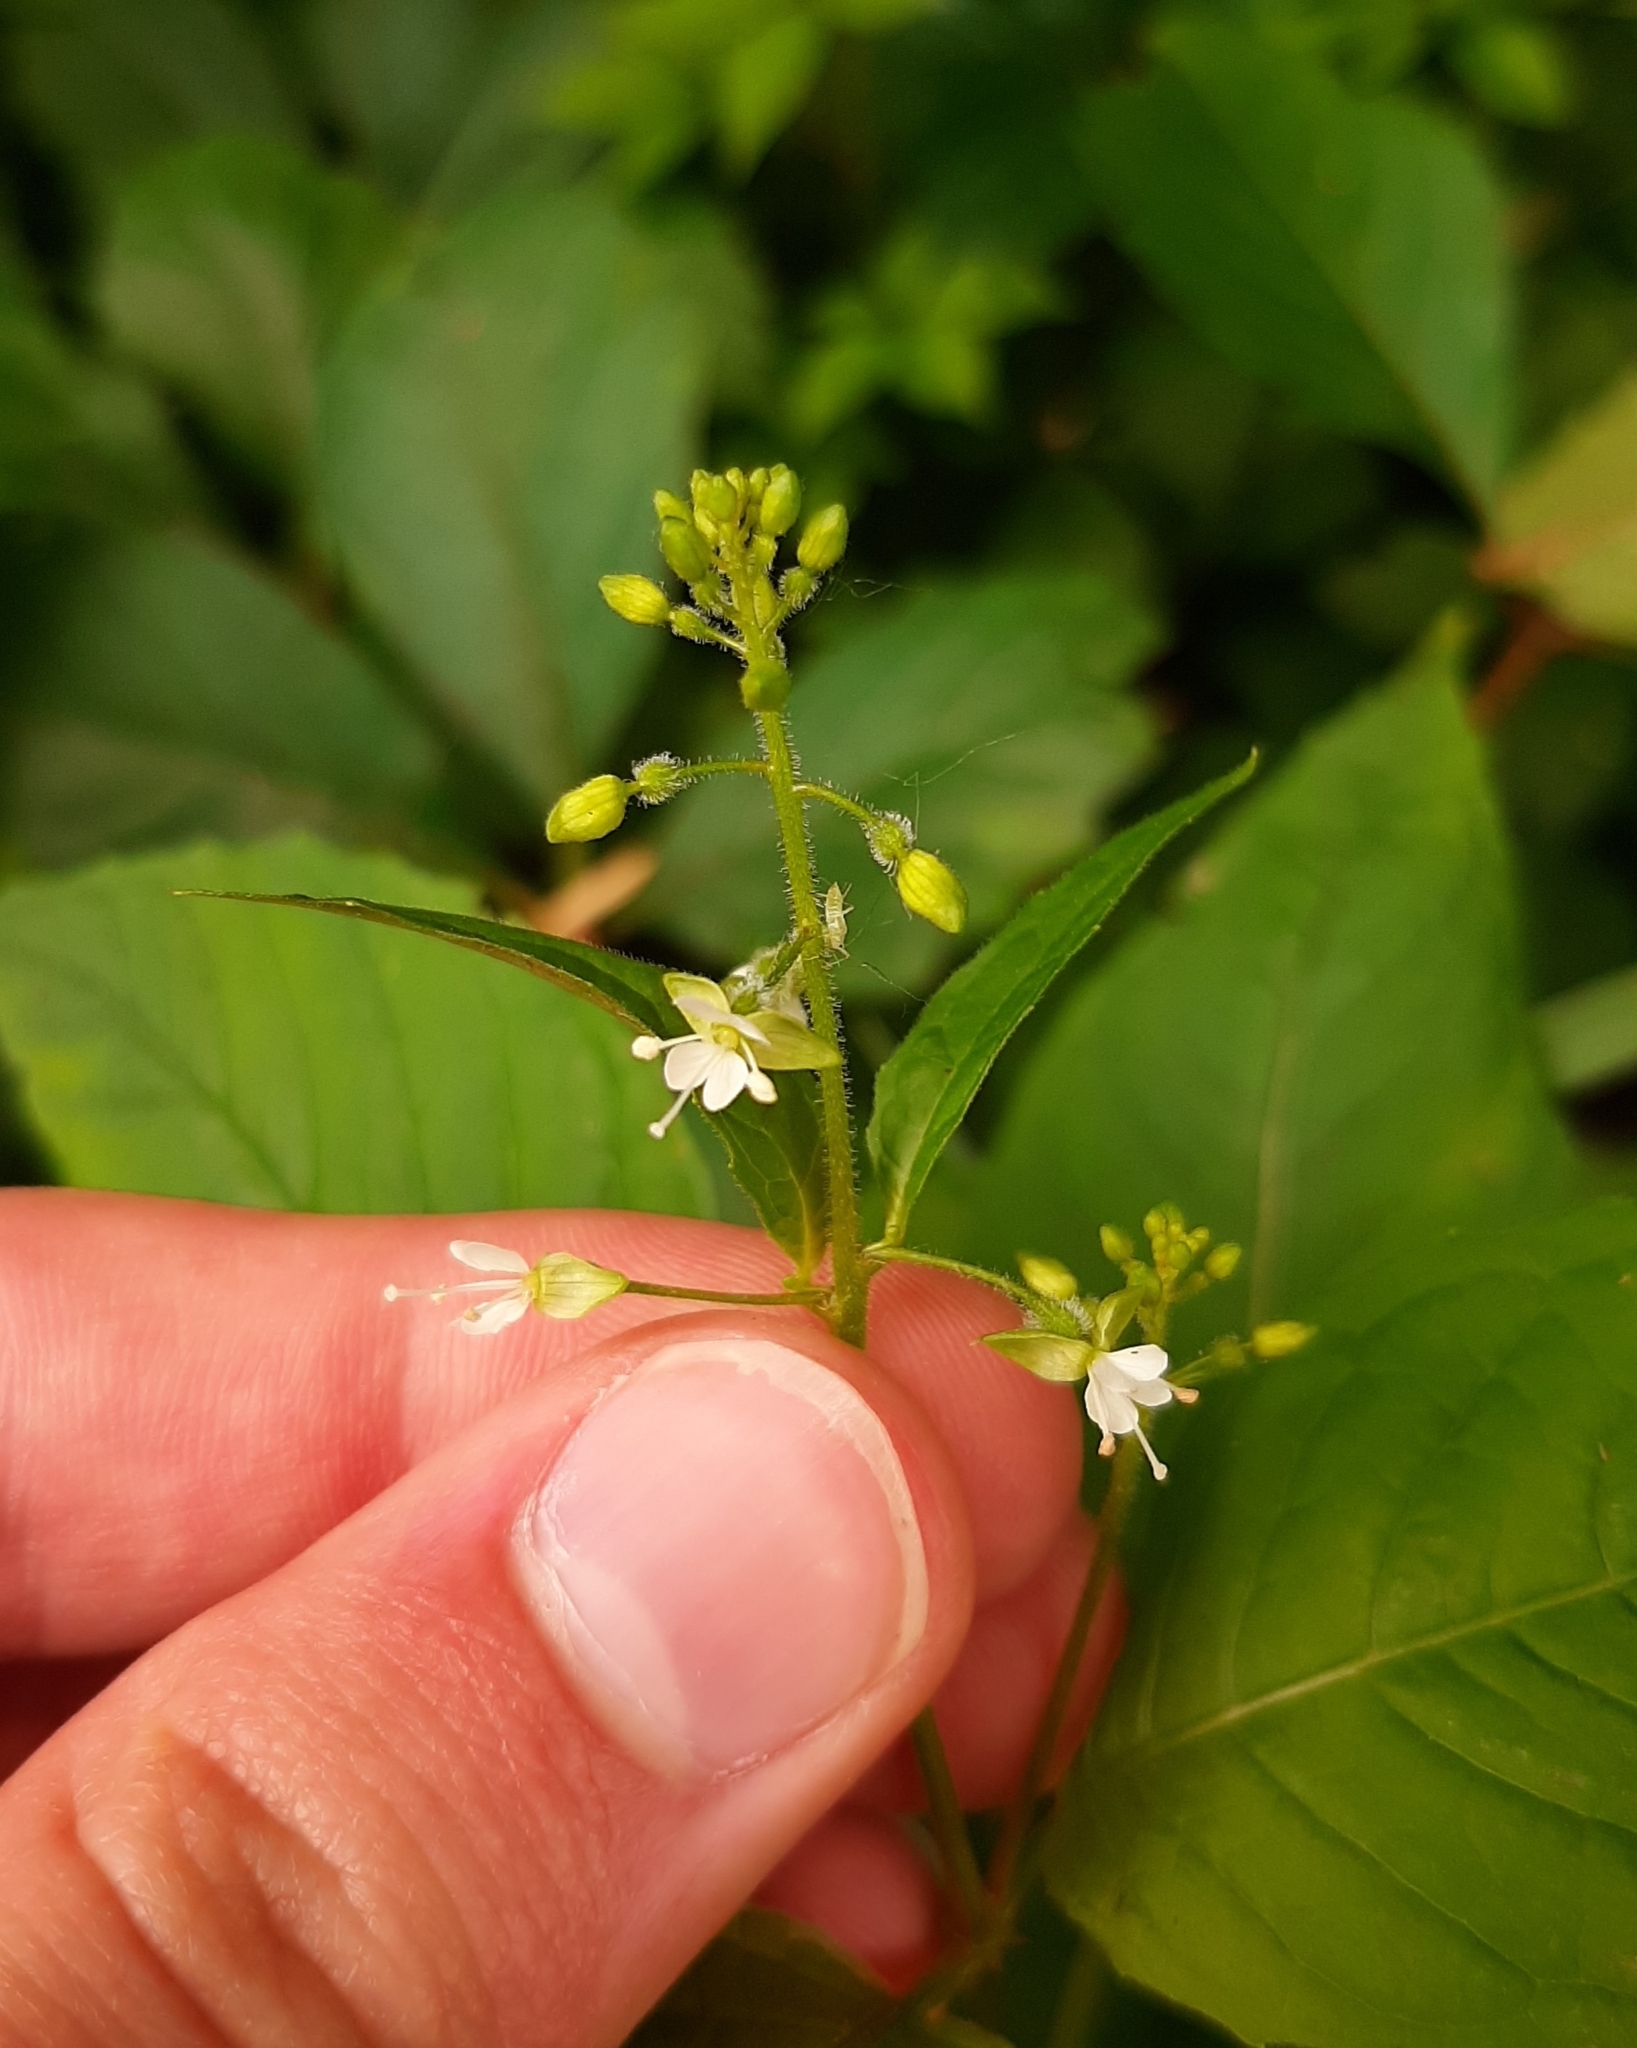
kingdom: Plantae
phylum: Tracheophyta
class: Magnoliopsida
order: Myrtales
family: Onagraceae
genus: Circaea
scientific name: Circaea canadensis
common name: Broad-leaved enchanter's nightshade
